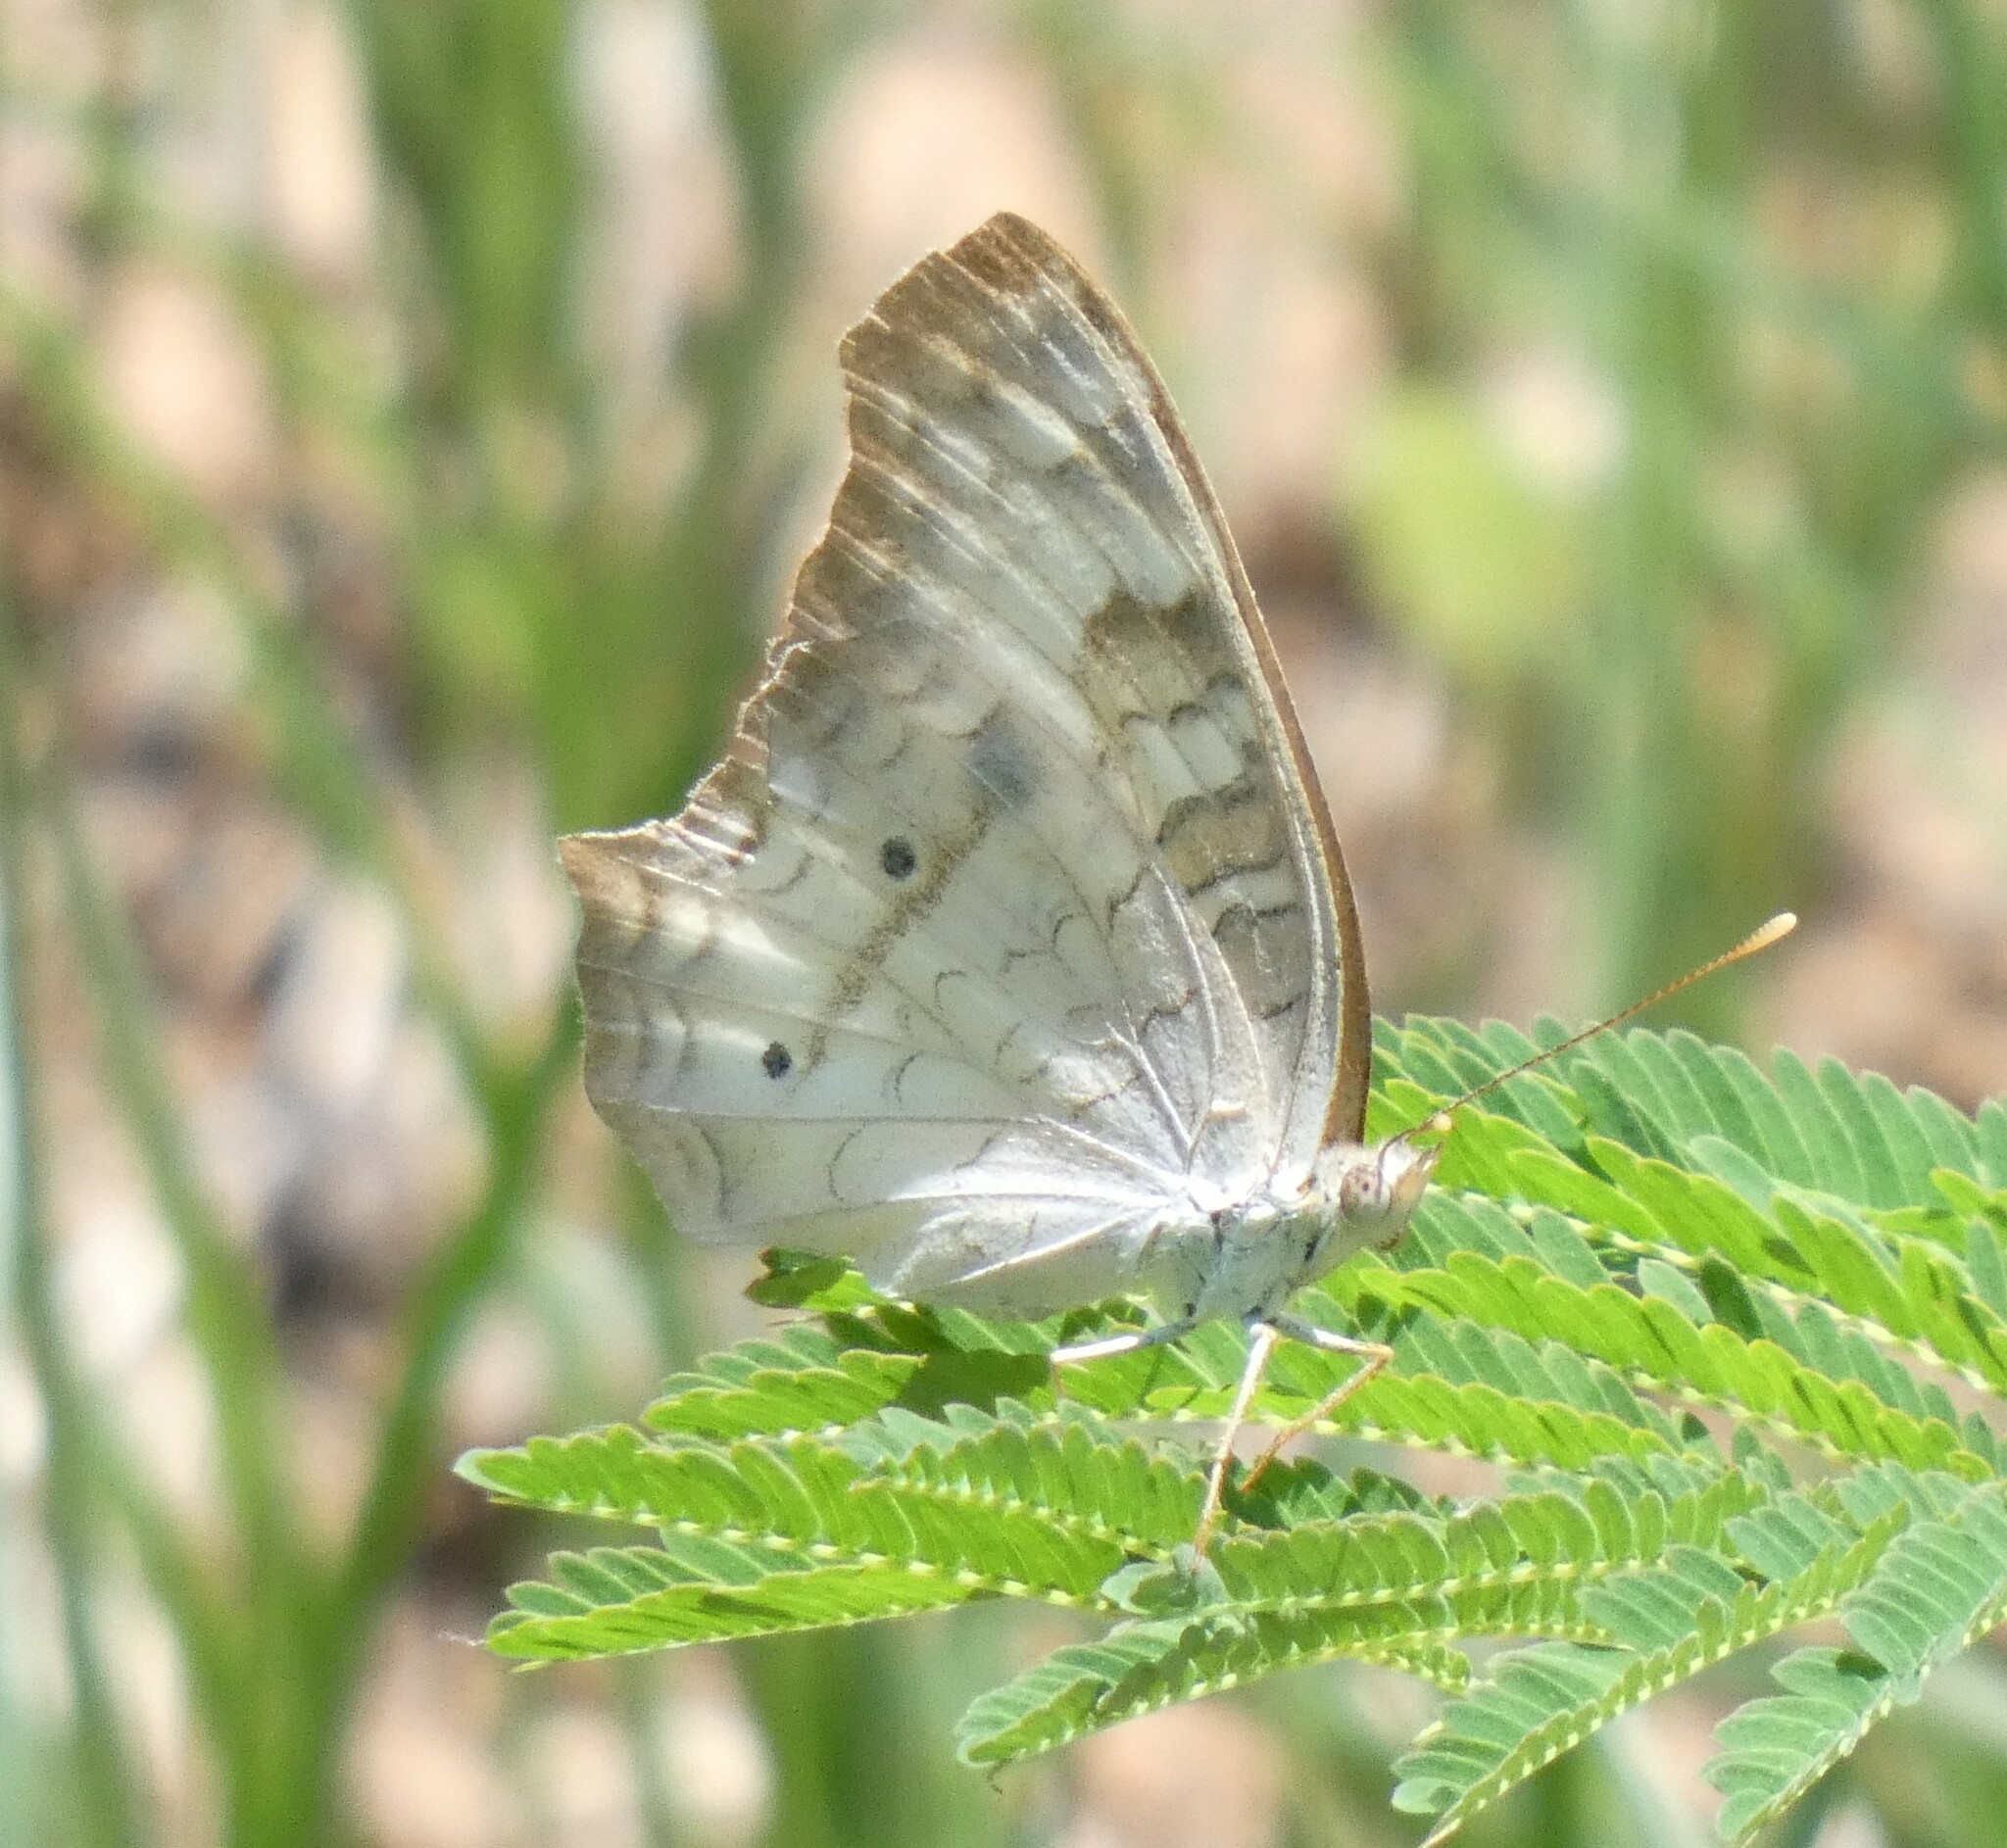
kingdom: Animalia
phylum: Arthropoda
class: Insecta
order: Lepidoptera
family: Nymphalidae
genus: Anartia
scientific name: Anartia jatrophae
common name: White peacock
